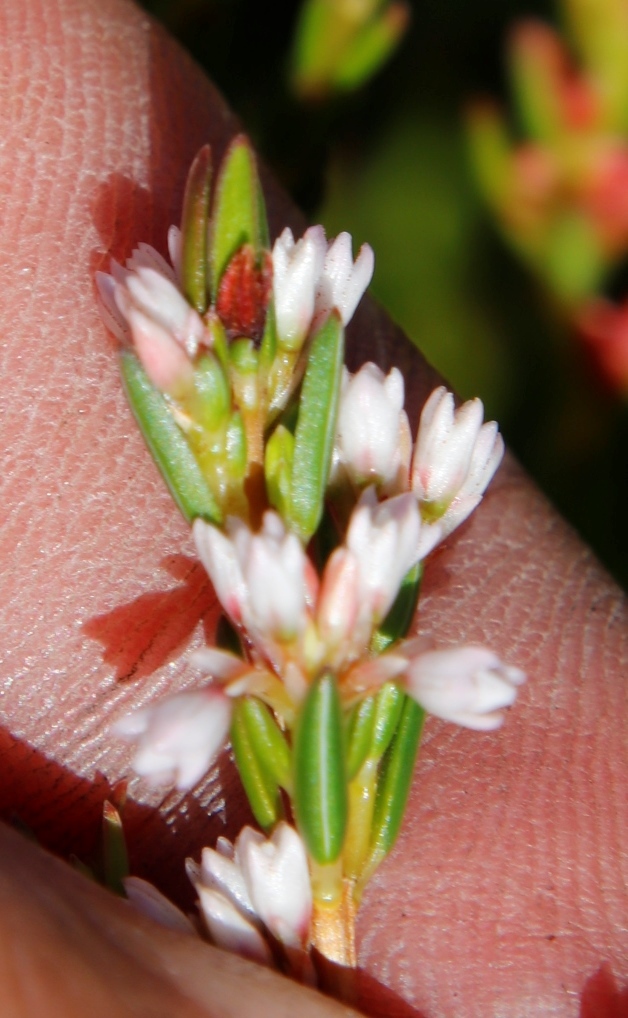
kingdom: Plantae
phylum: Tracheophyta
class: Magnoliopsida
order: Ericales
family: Ericaceae
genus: Erica
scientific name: Erica articularis
